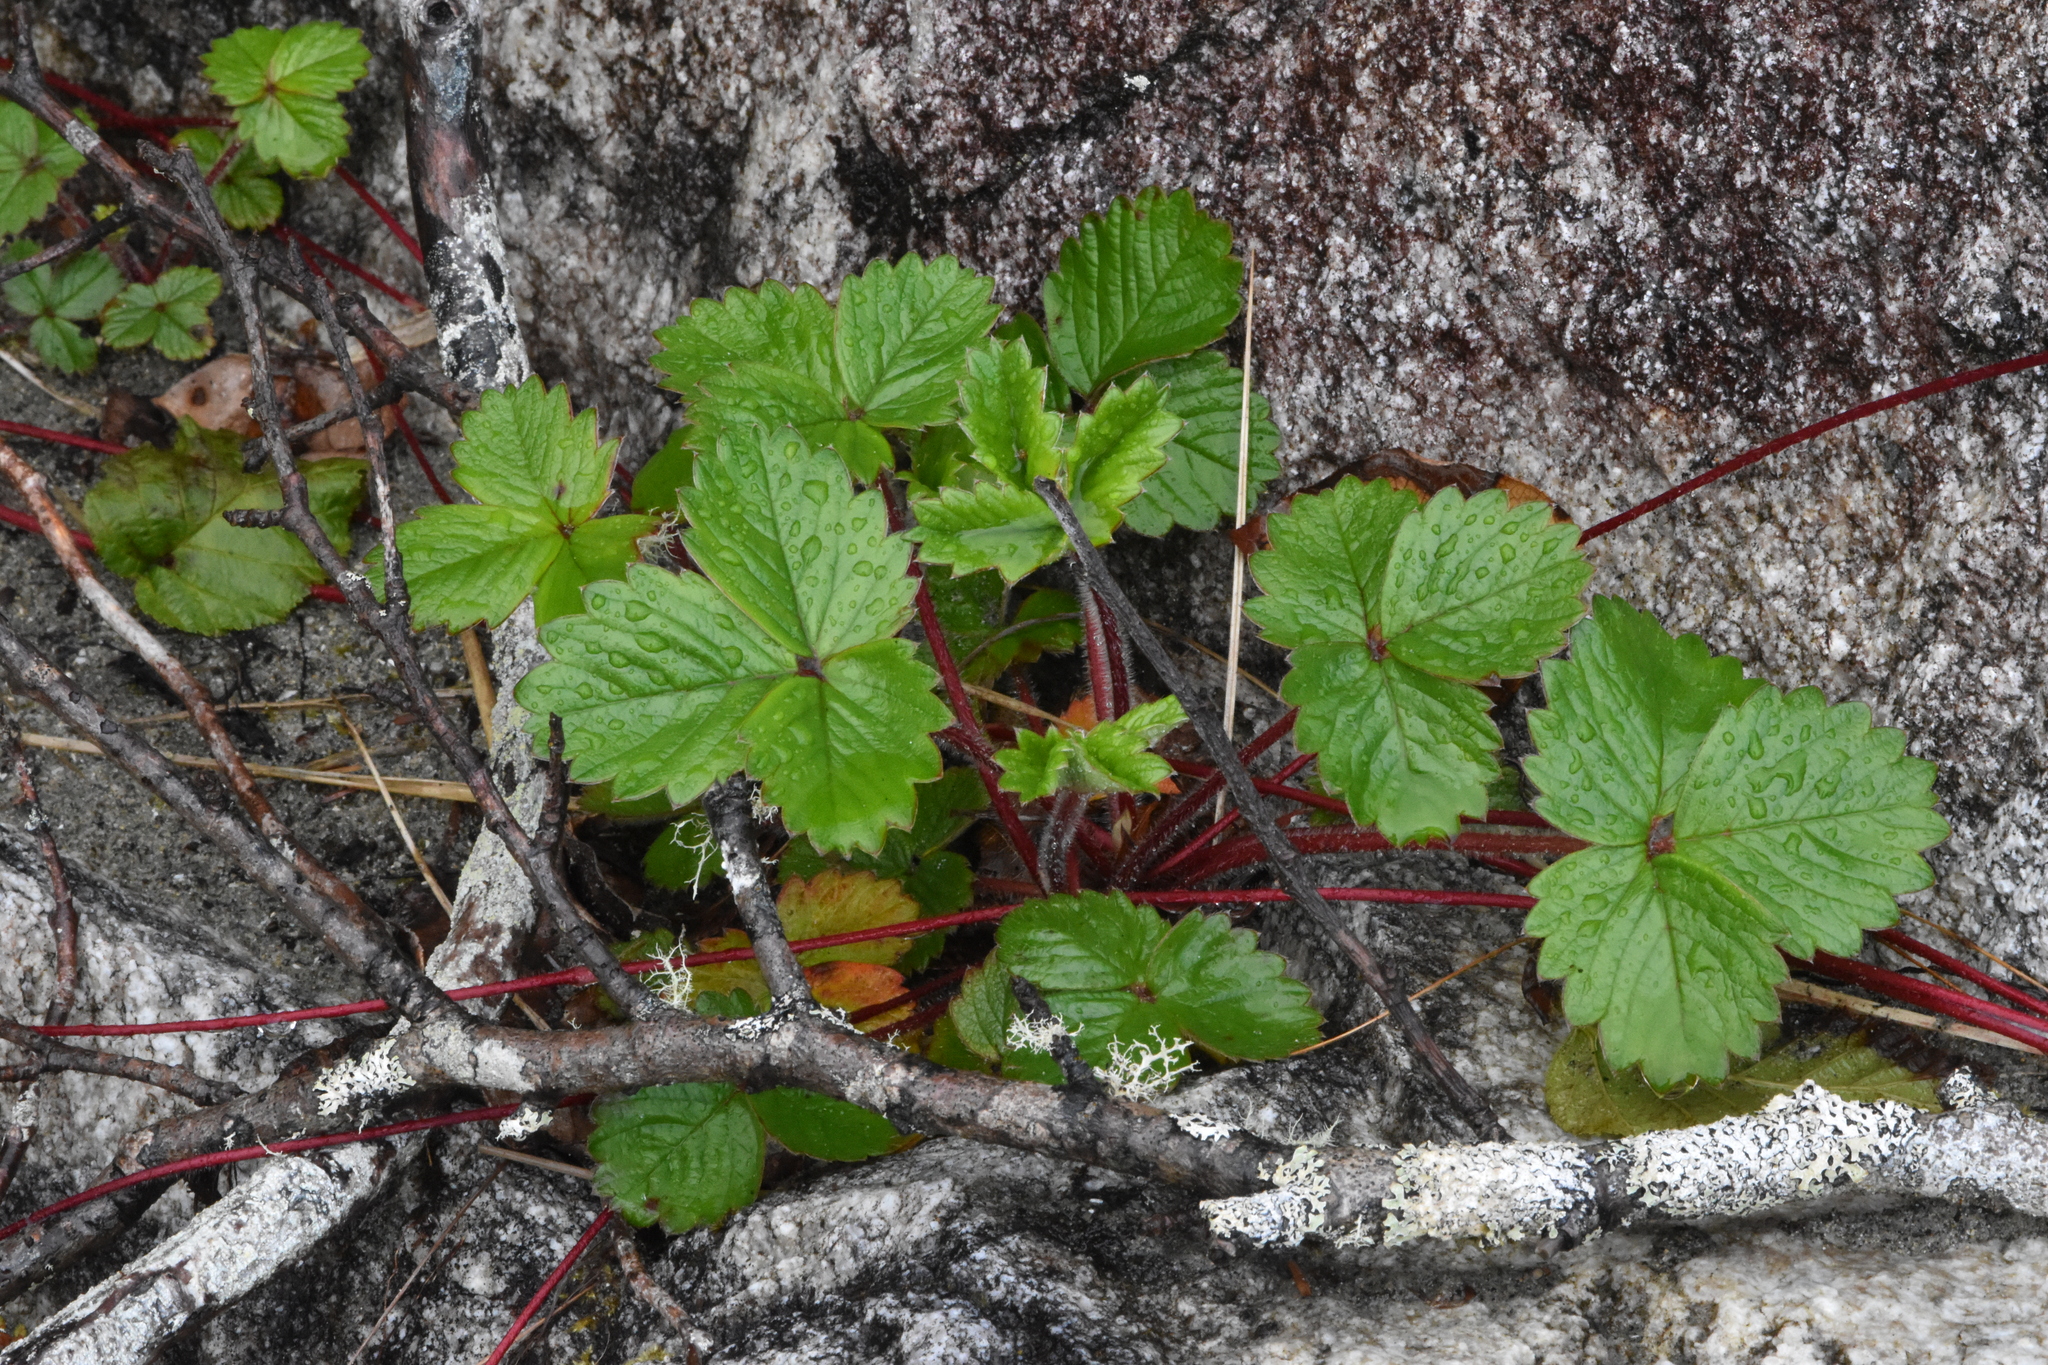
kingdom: Plantae
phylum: Tracheophyta
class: Magnoliopsida
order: Rosales
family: Rosaceae
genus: Fragaria
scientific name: Fragaria chiloensis
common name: Beach strawberry
